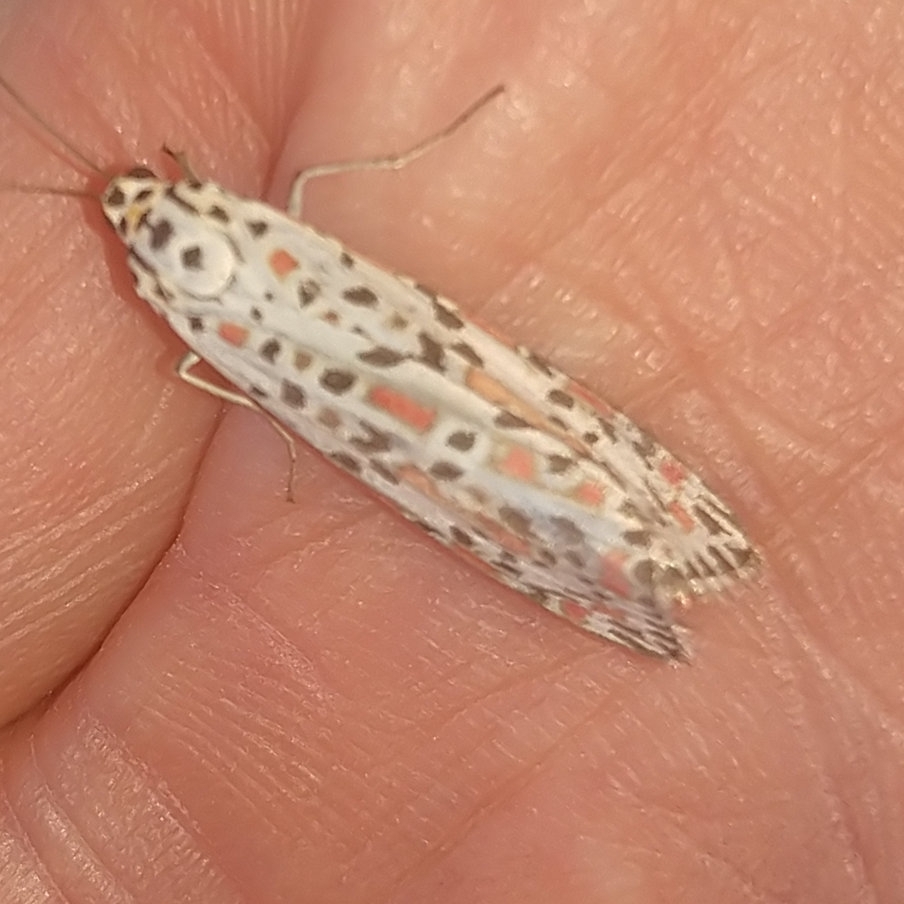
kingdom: Animalia
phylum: Arthropoda
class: Insecta
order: Lepidoptera
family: Erebidae
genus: Utetheisa
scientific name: Utetheisa pulchelloides
